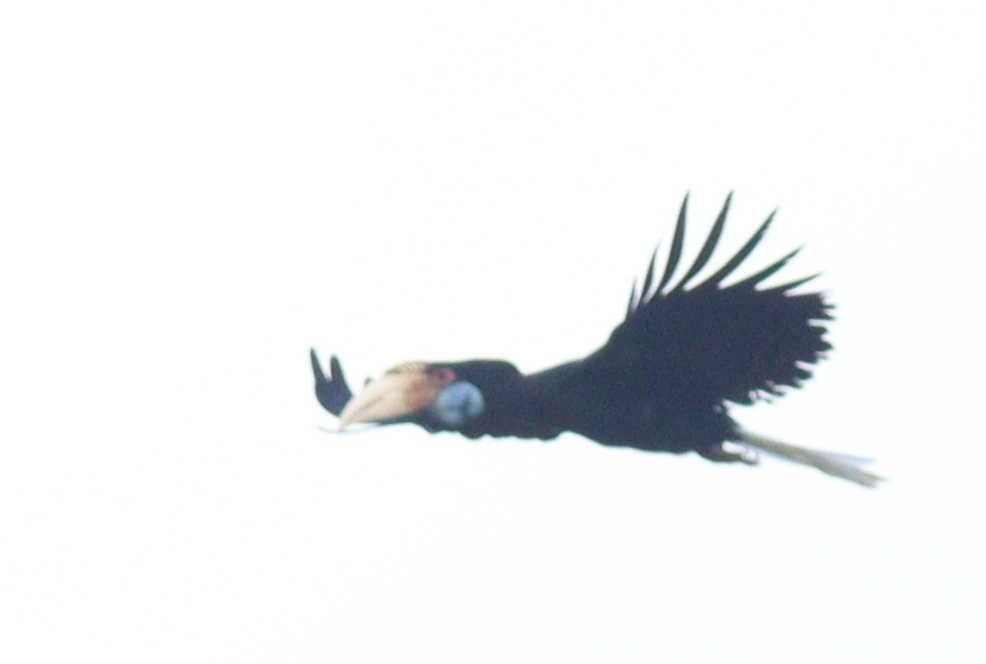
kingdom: Animalia
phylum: Chordata
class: Aves
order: Bucerotiformes
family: Bucerotidae
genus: Rhyticeros
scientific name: Rhyticeros undulatus
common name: Wreathed hornbill
